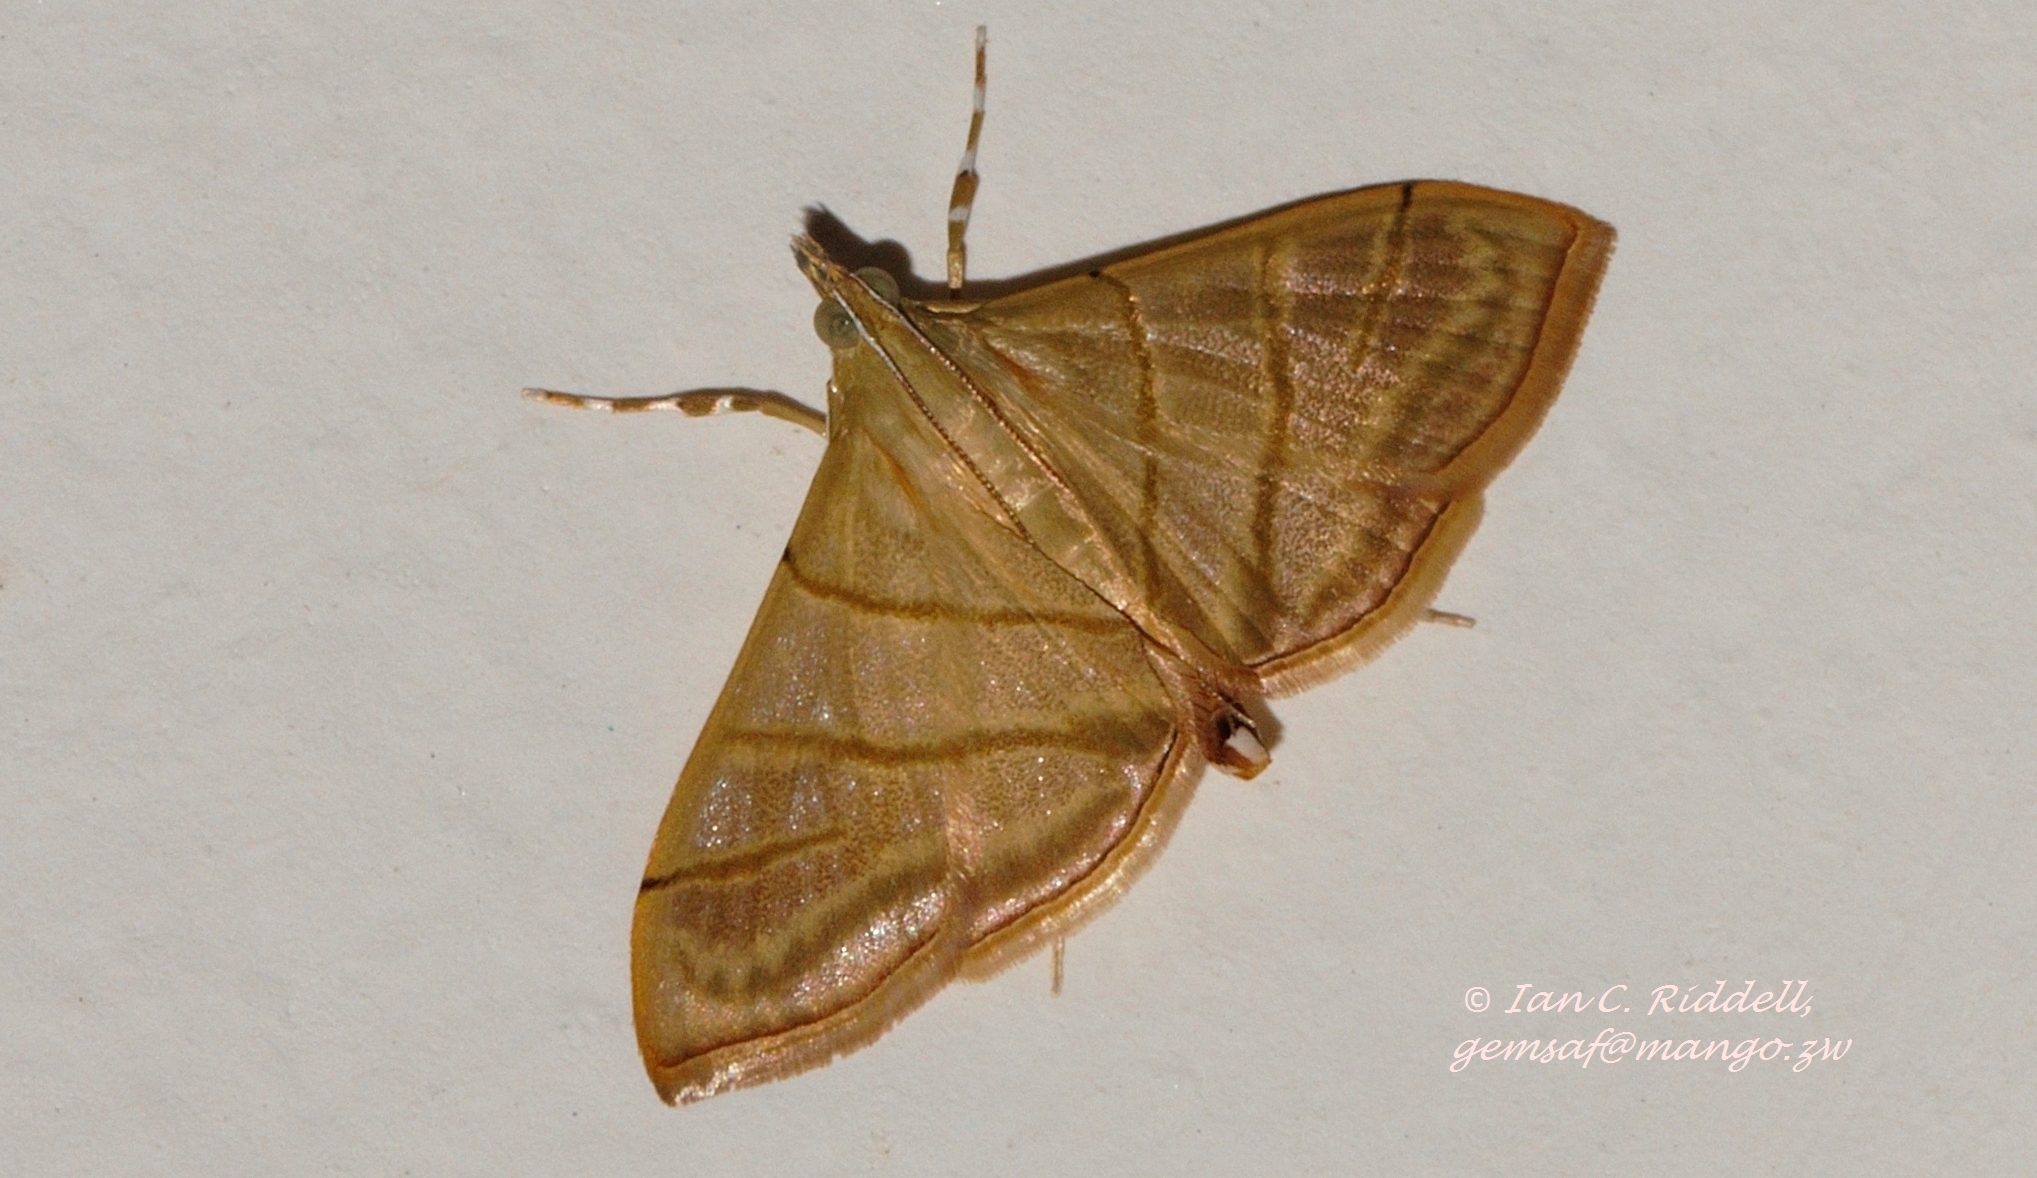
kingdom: Animalia
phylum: Arthropoda
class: Insecta
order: Lepidoptera
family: Crambidae
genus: Pagyda
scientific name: Pagyda salvalis
